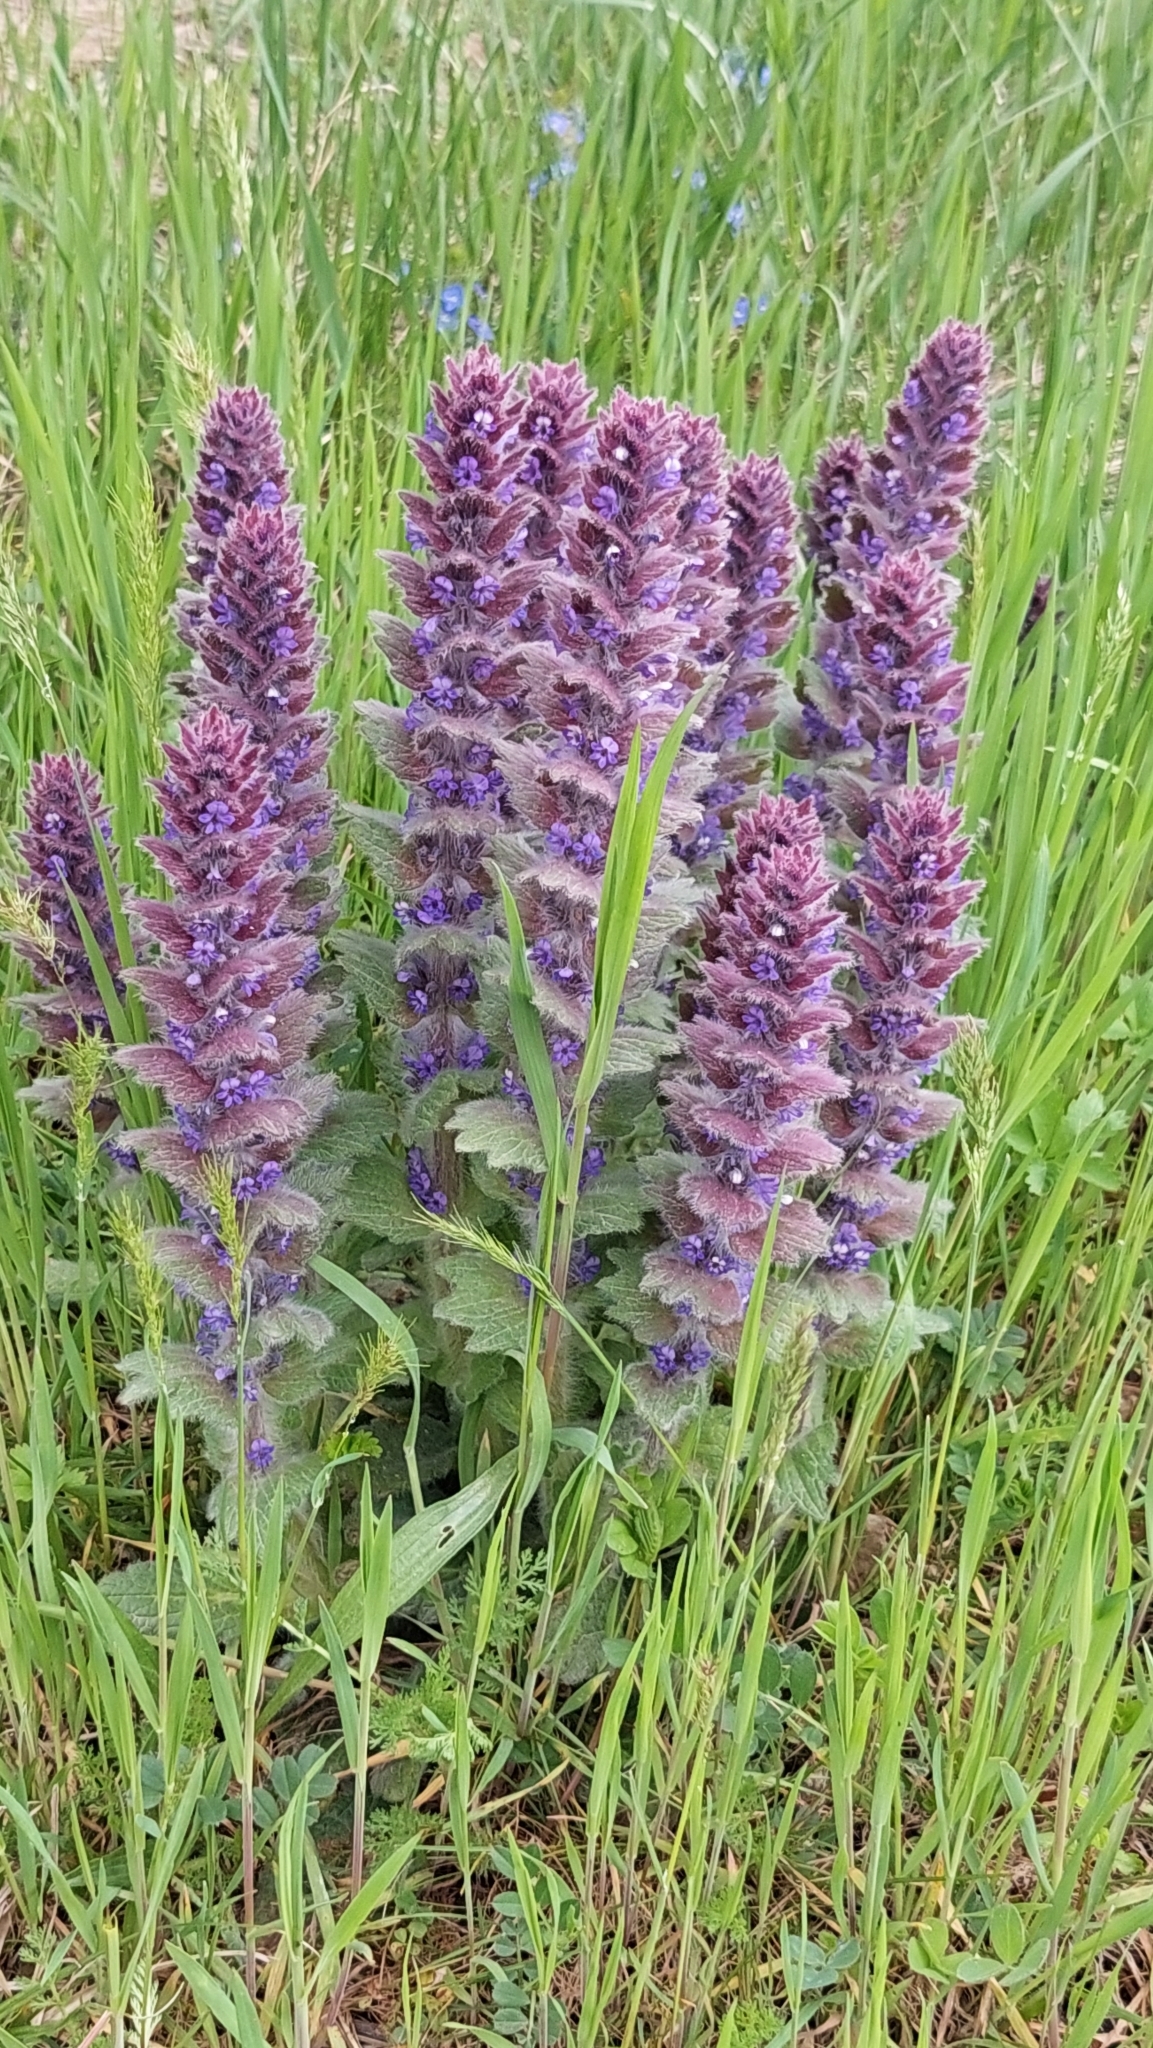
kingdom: Plantae
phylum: Tracheophyta
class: Magnoliopsida
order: Lamiales
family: Lamiaceae
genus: Ajuga
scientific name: Ajuga orientalis
